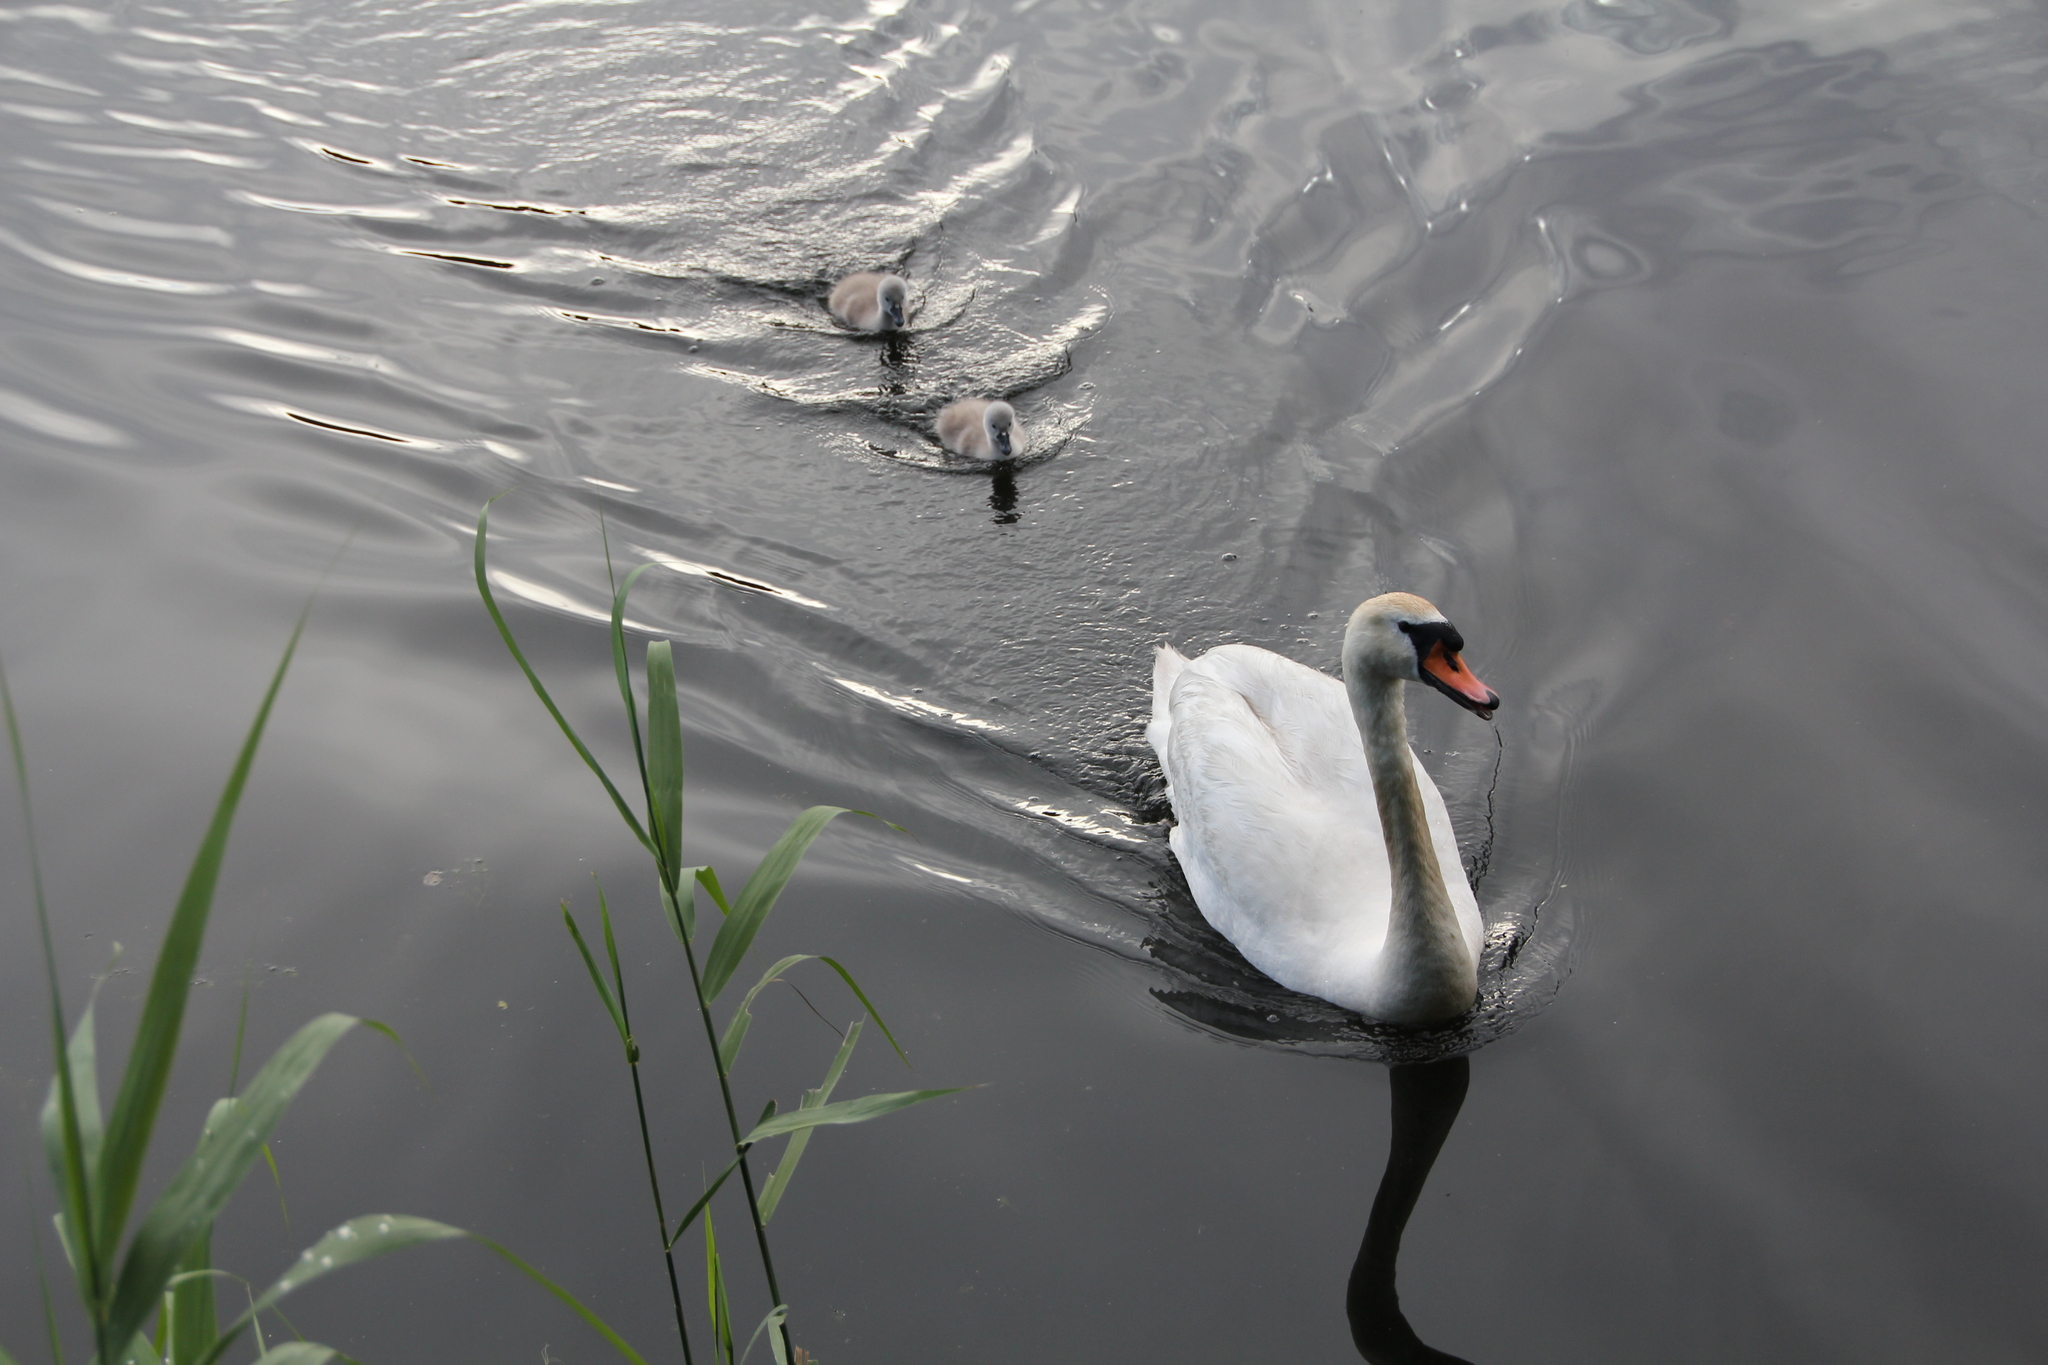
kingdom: Animalia
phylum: Chordata
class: Aves
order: Anseriformes
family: Anatidae
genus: Cygnus
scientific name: Cygnus olor
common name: Mute swan
